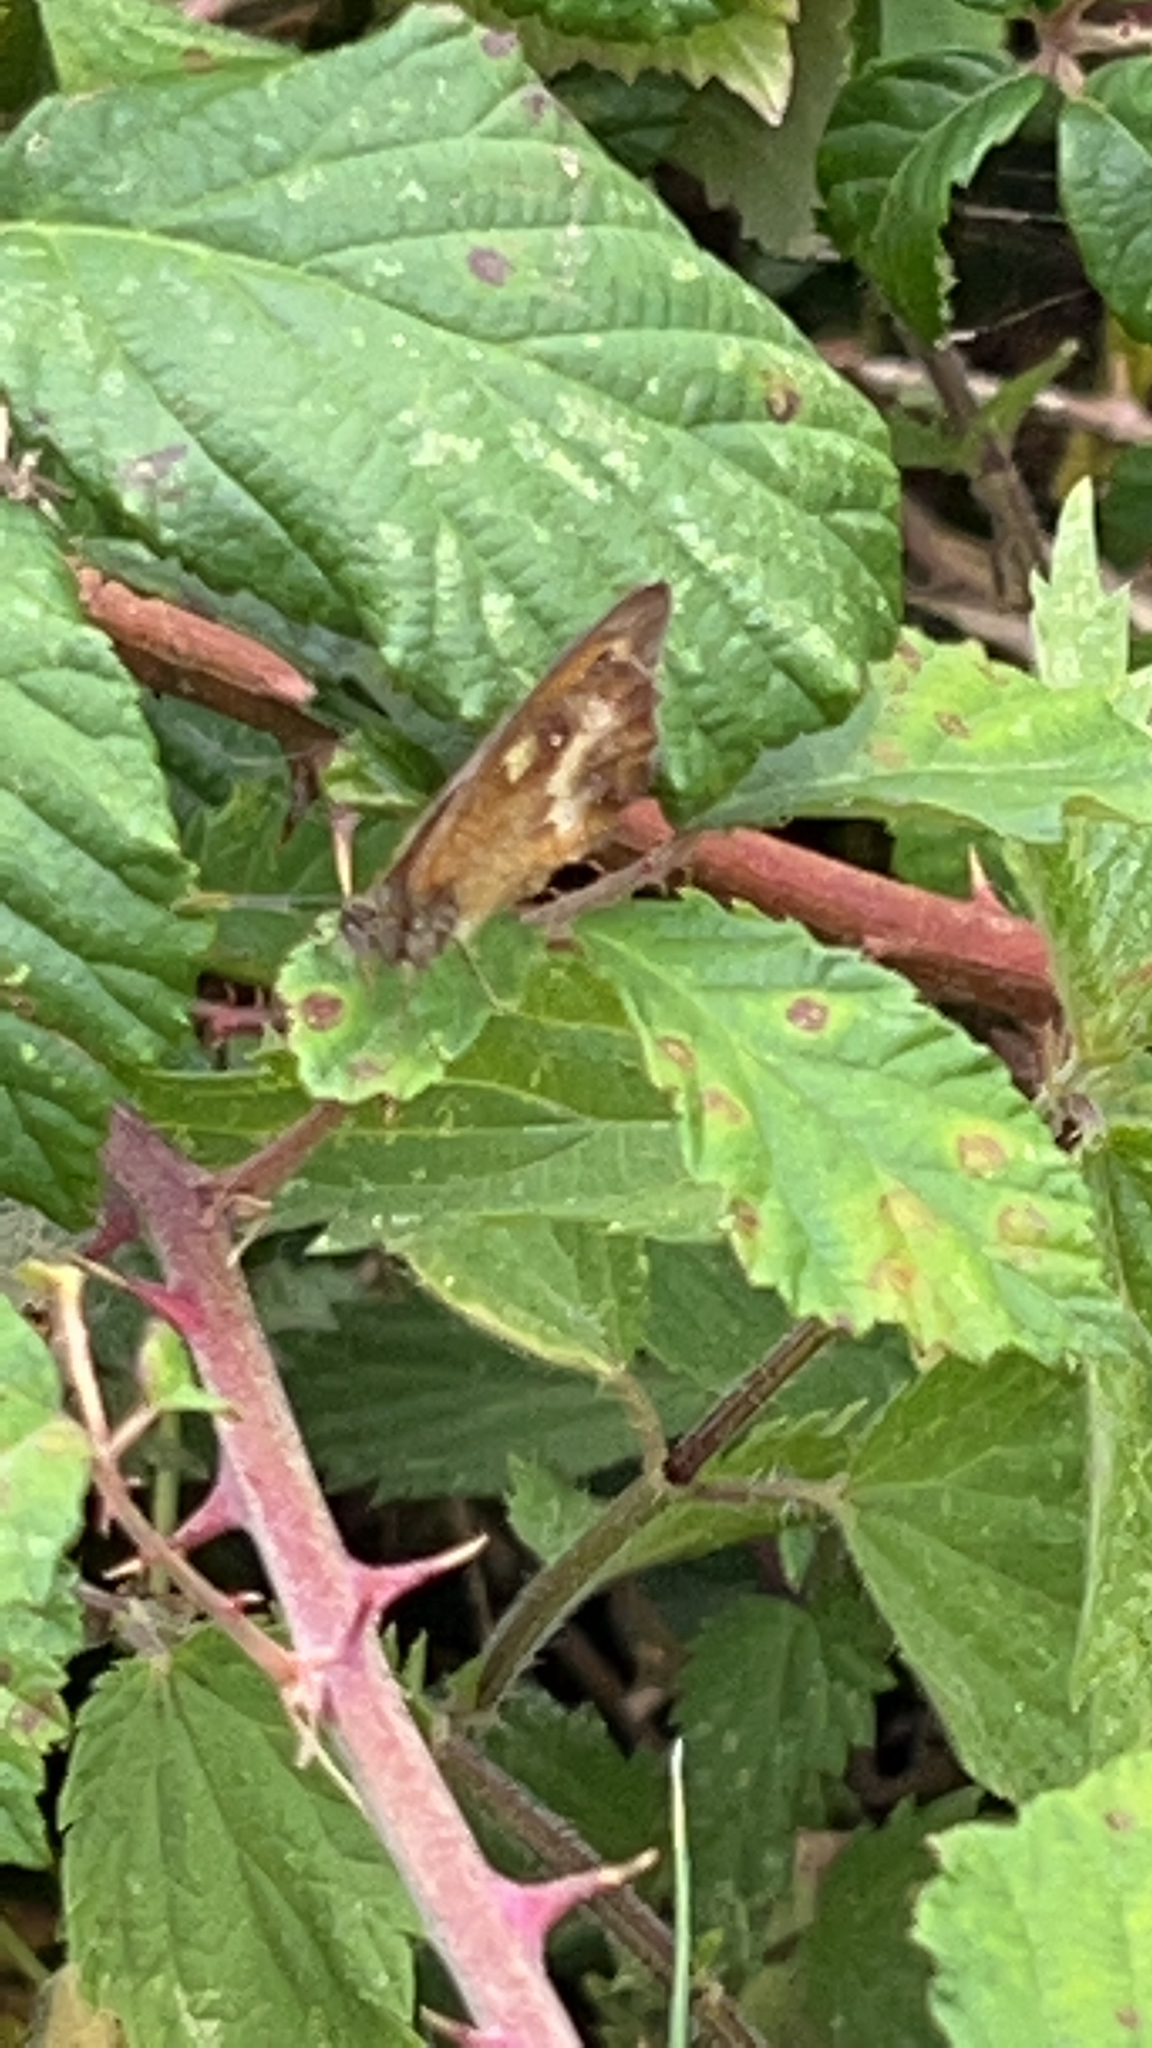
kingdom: Animalia
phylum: Arthropoda
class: Insecta
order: Lepidoptera
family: Nymphalidae
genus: Pyronia
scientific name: Pyronia tithonus
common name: Gatekeeper
